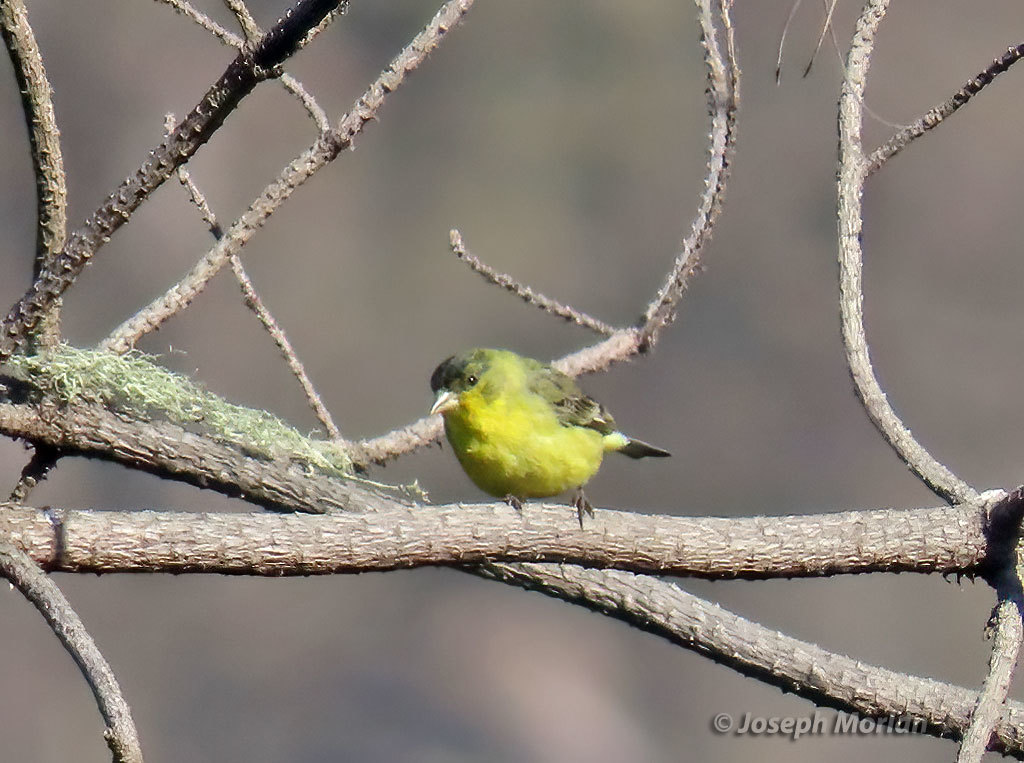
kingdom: Animalia
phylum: Chordata
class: Aves
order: Passeriformes
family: Fringillidae
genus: Spinus
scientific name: Spinus psaltria
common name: Lesser goldfinch
